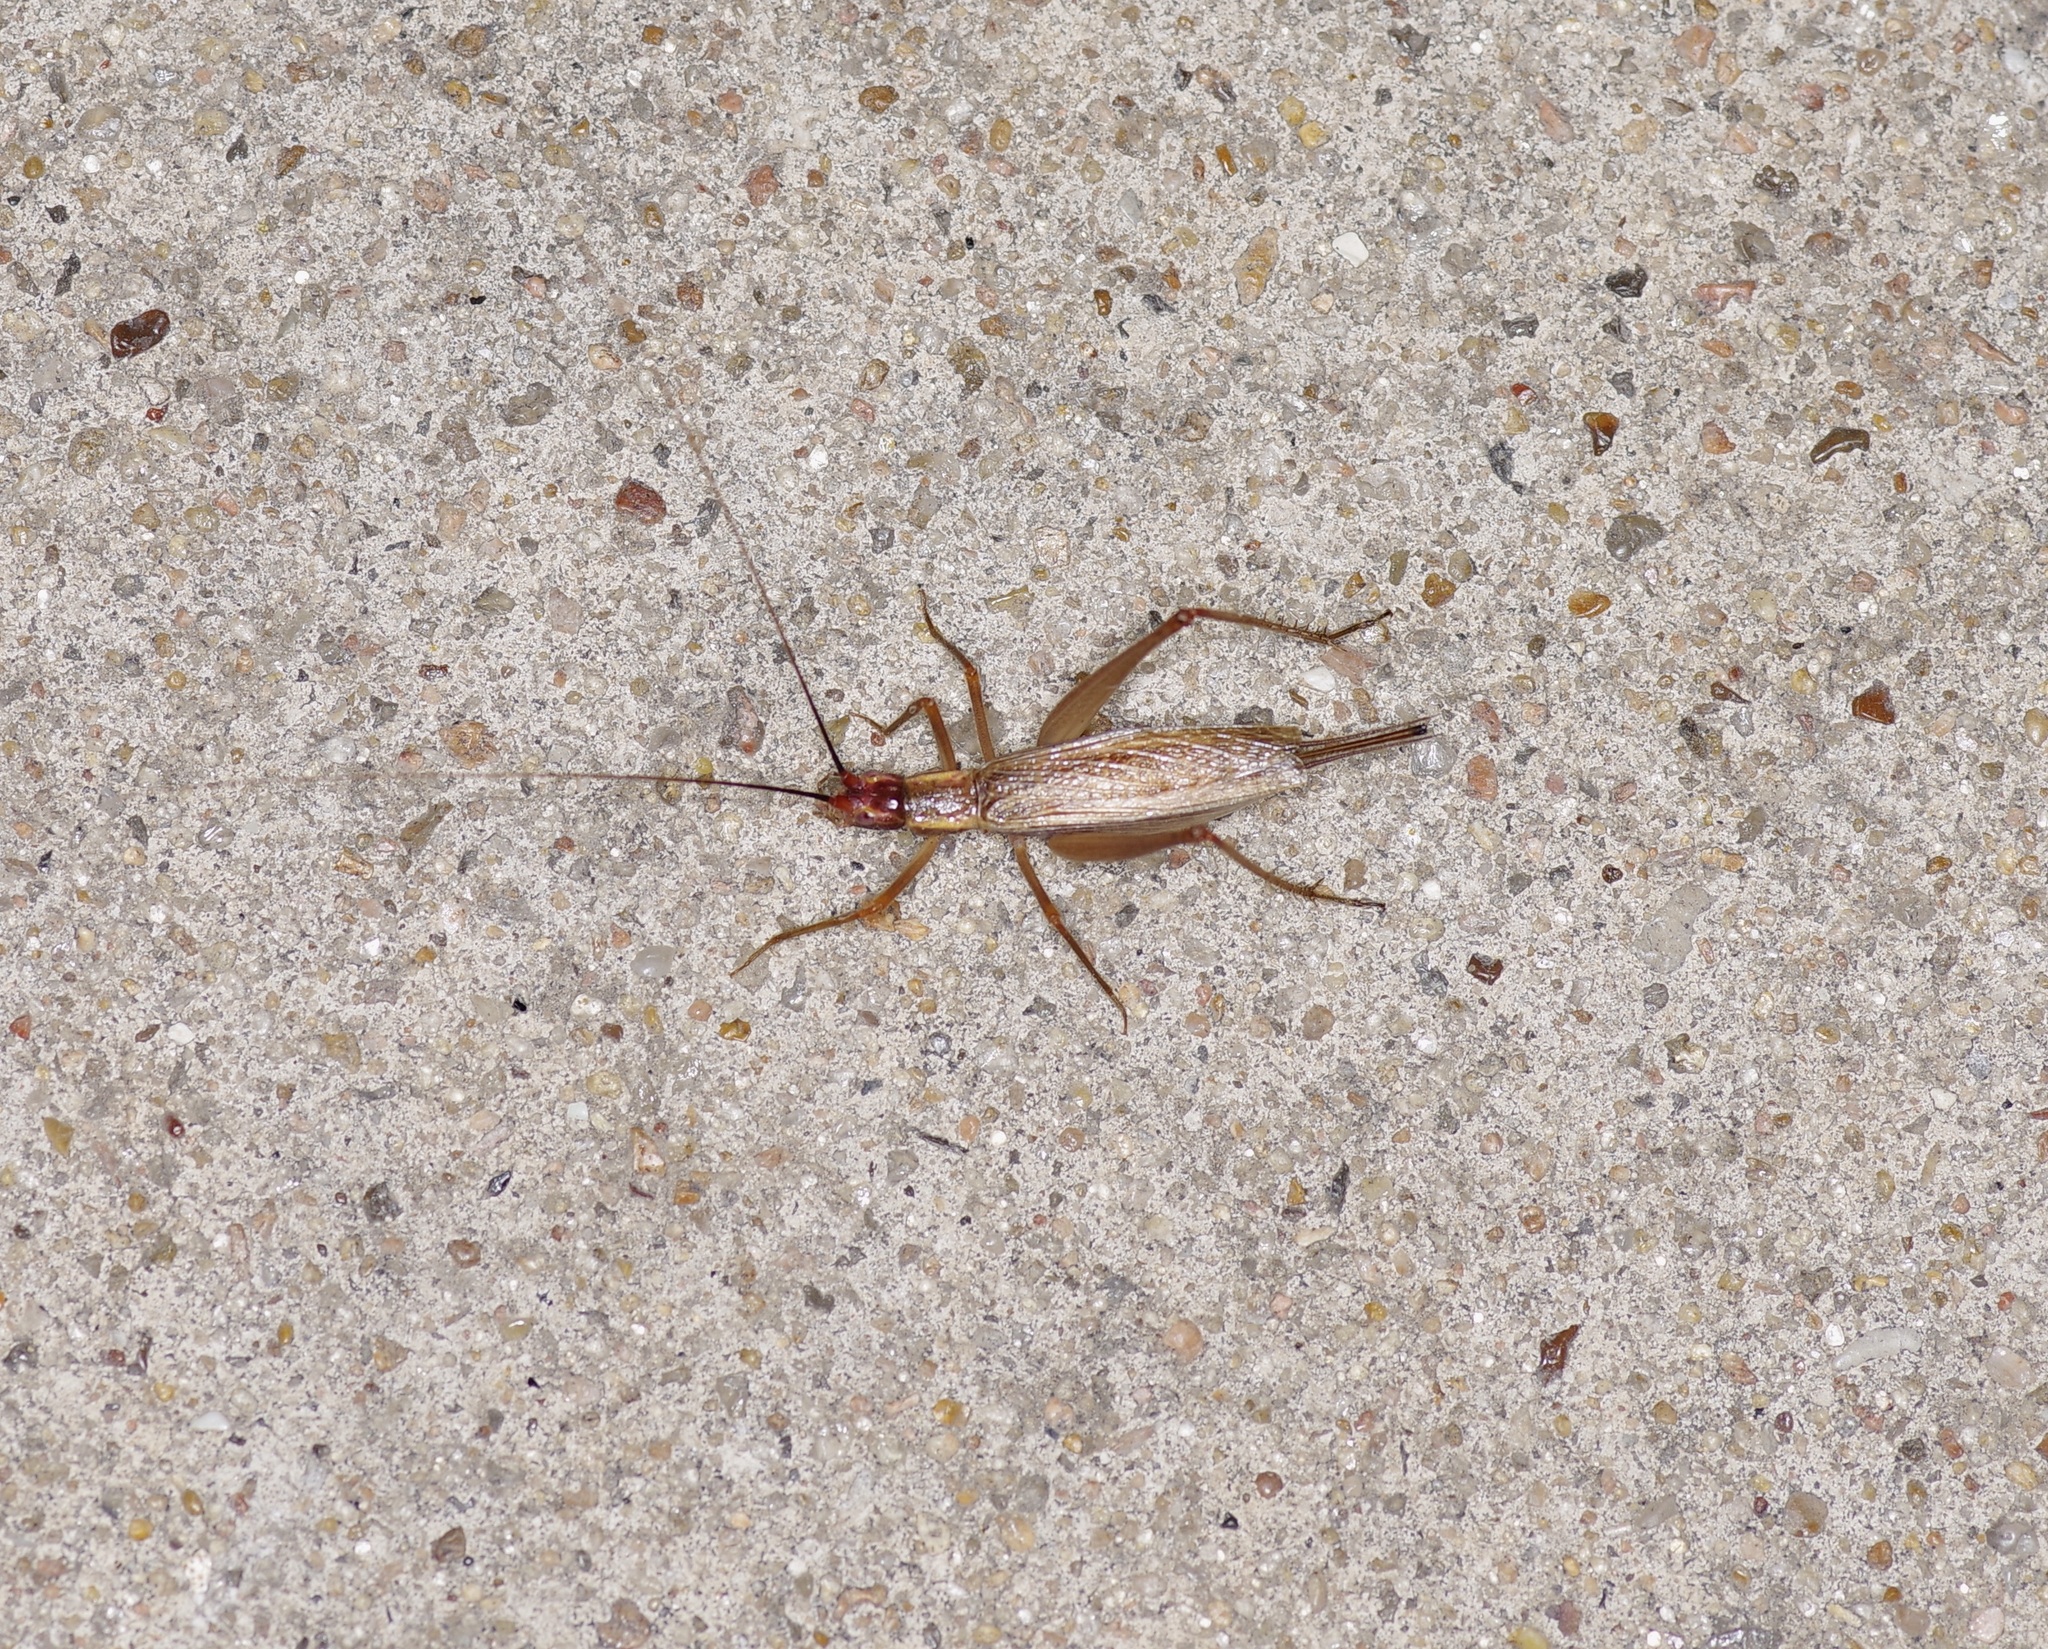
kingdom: Animalia
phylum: Arthropoda
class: Insecta
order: Orthoptera
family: Gryllidae
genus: Oecanthus
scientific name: Oecanthus californicus
